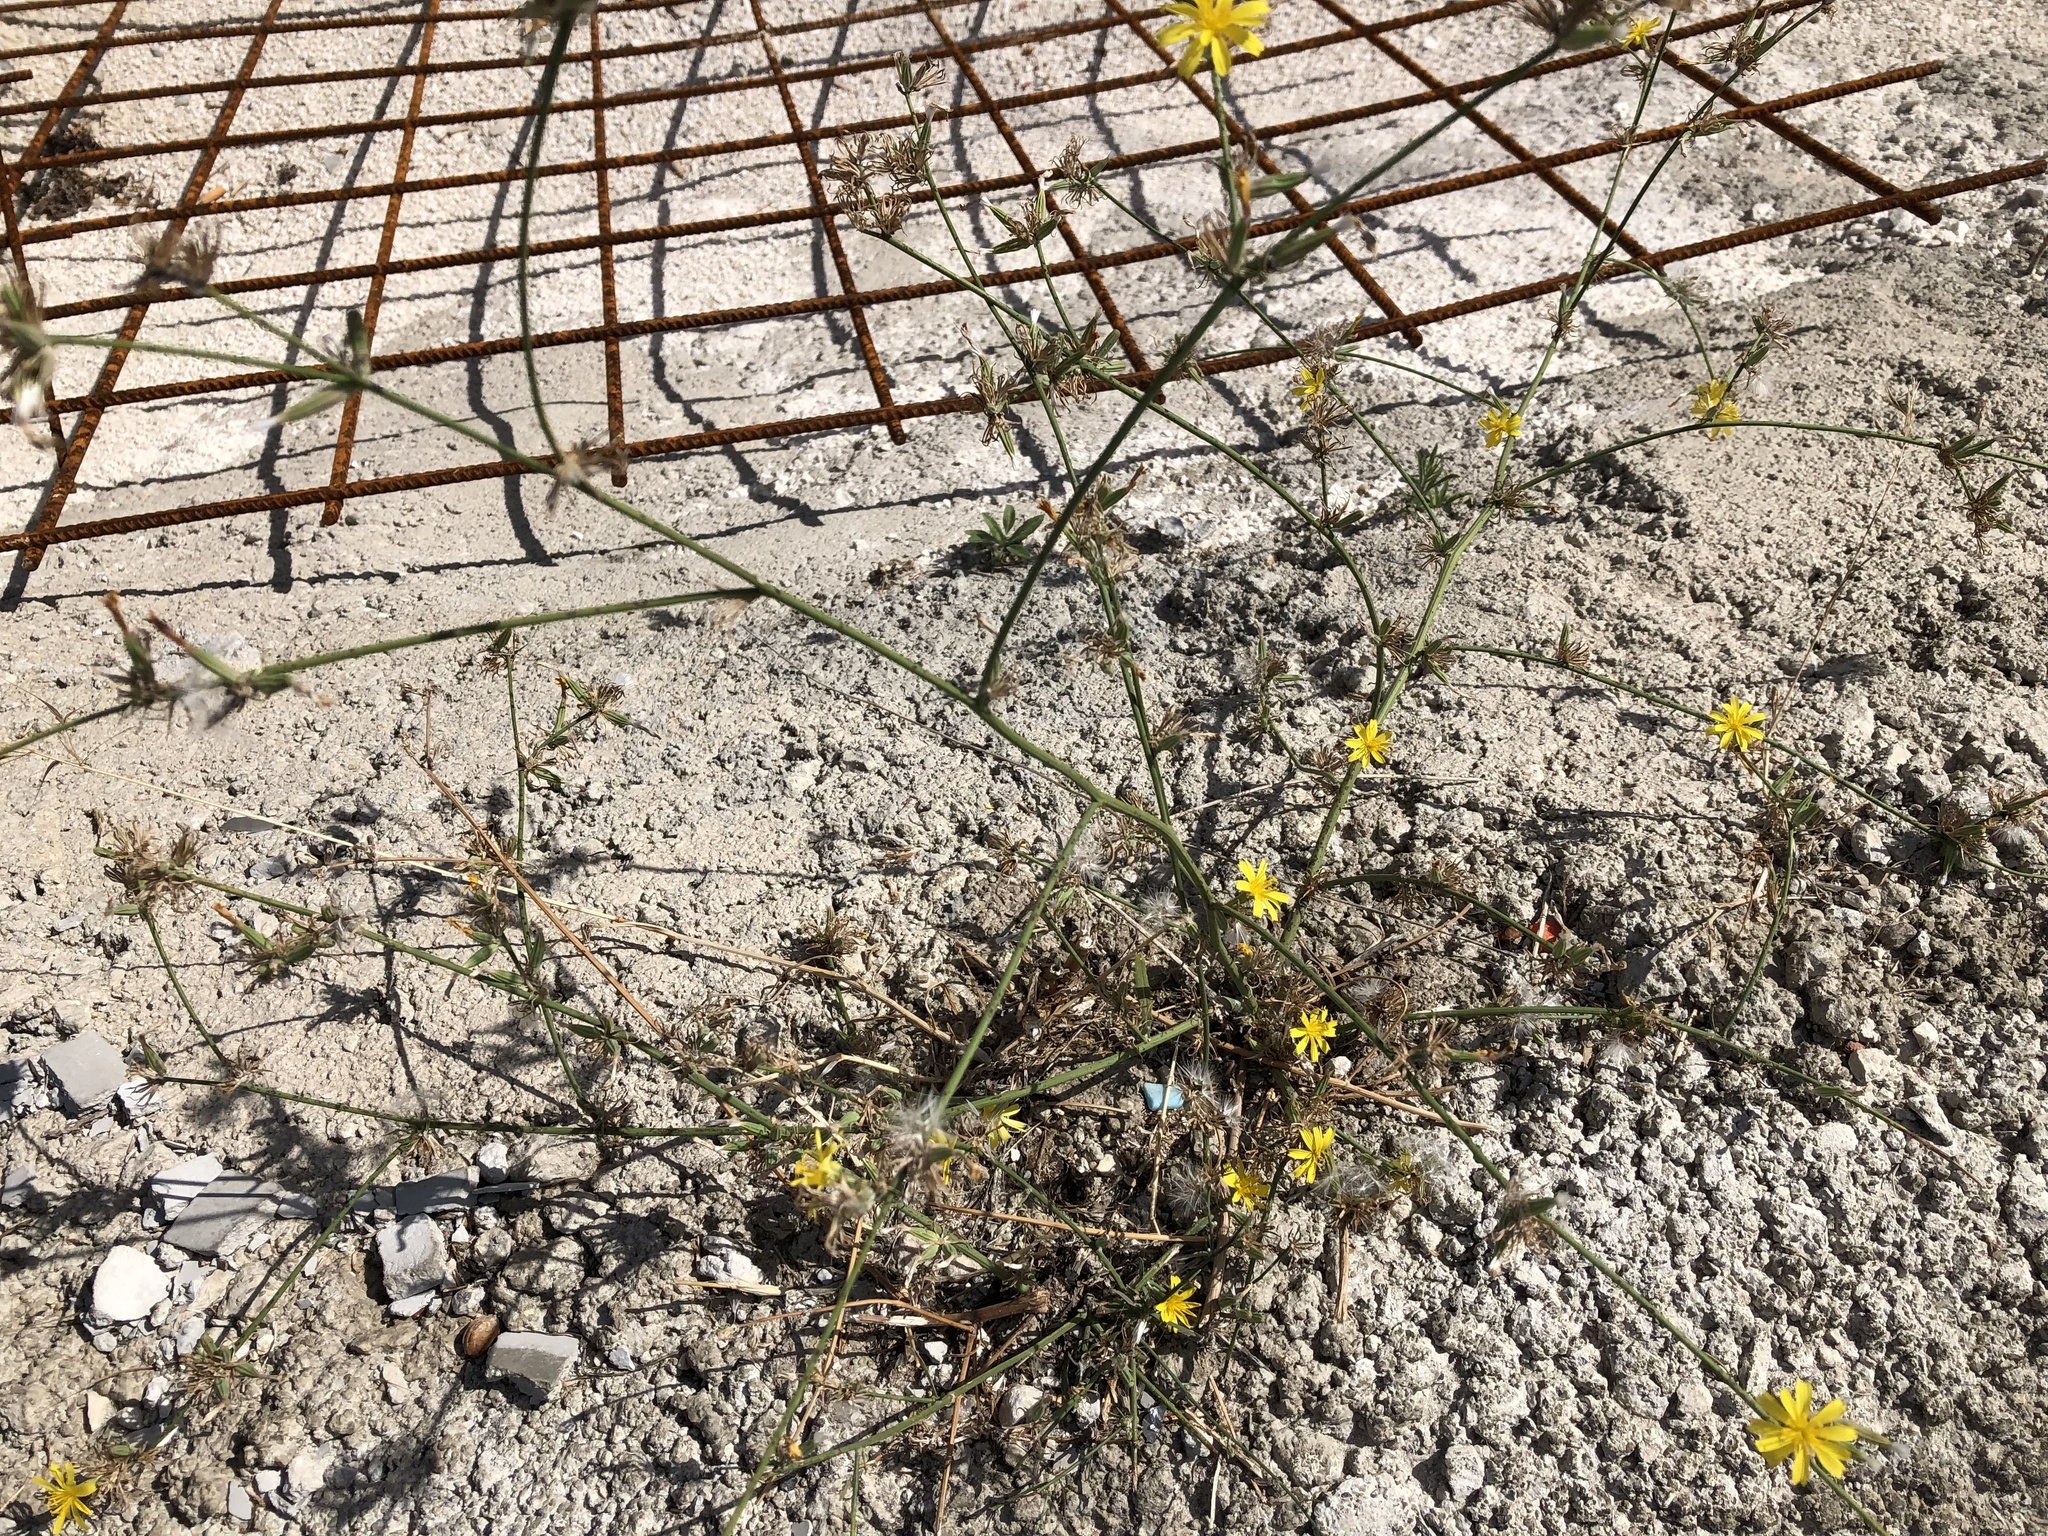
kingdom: Plantae
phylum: Tracheophyta
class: Magnoliopsida
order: Asterales
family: Asteraceae
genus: Chondrilla
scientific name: Chondrilla juncea
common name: Skeleton weed
